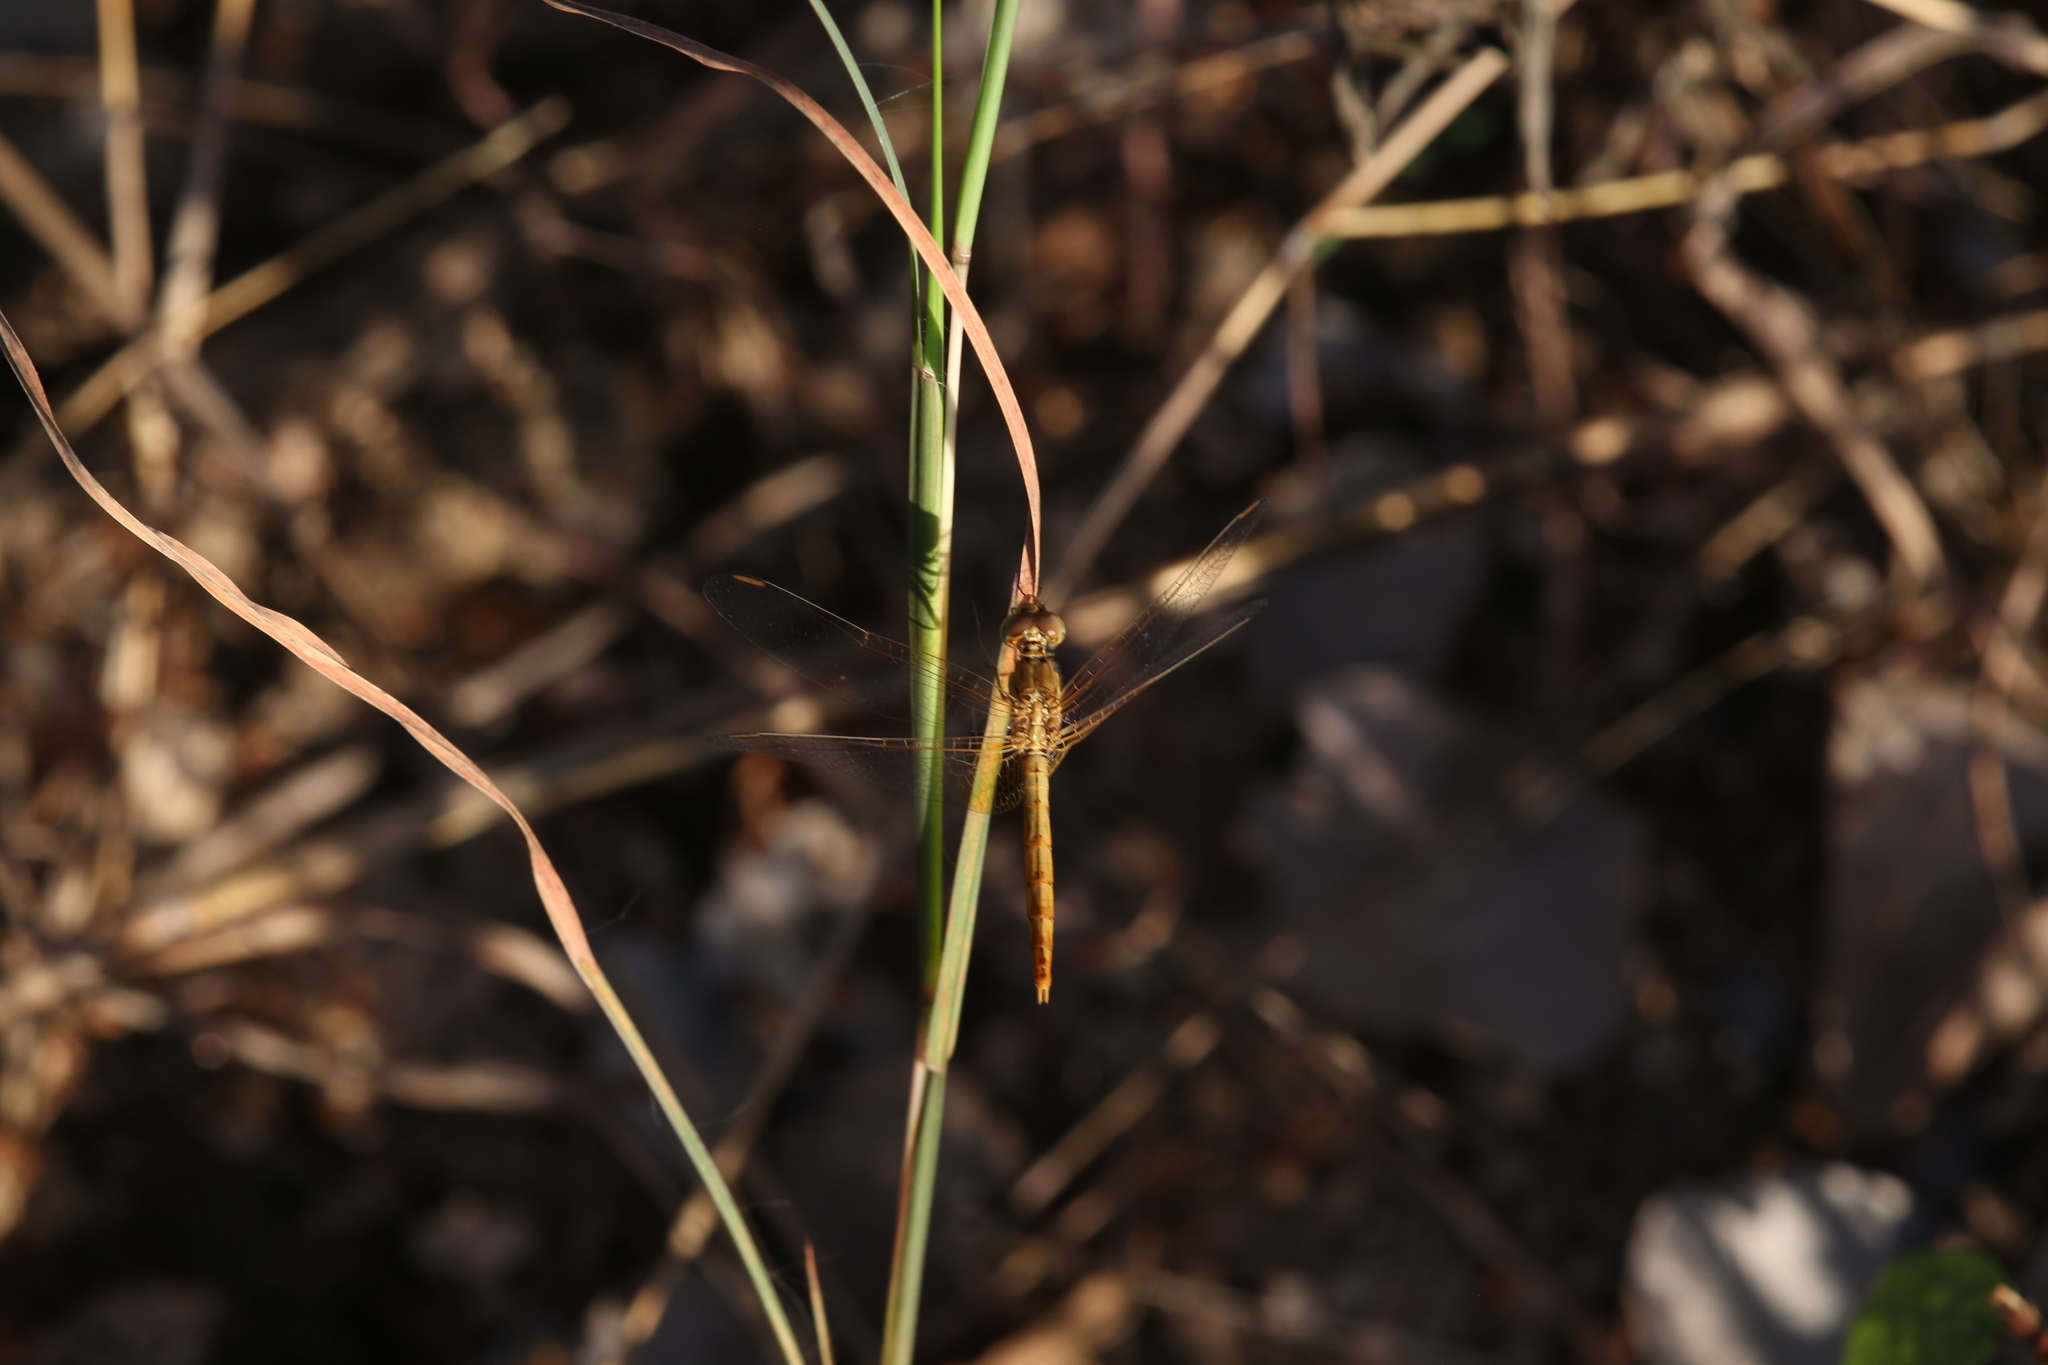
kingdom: Animalia
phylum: Arthropoda
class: Insecta
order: Odonata
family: Libellulidae
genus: Diplacodes
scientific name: Diplacodes haematodes
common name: Scarlet percher
